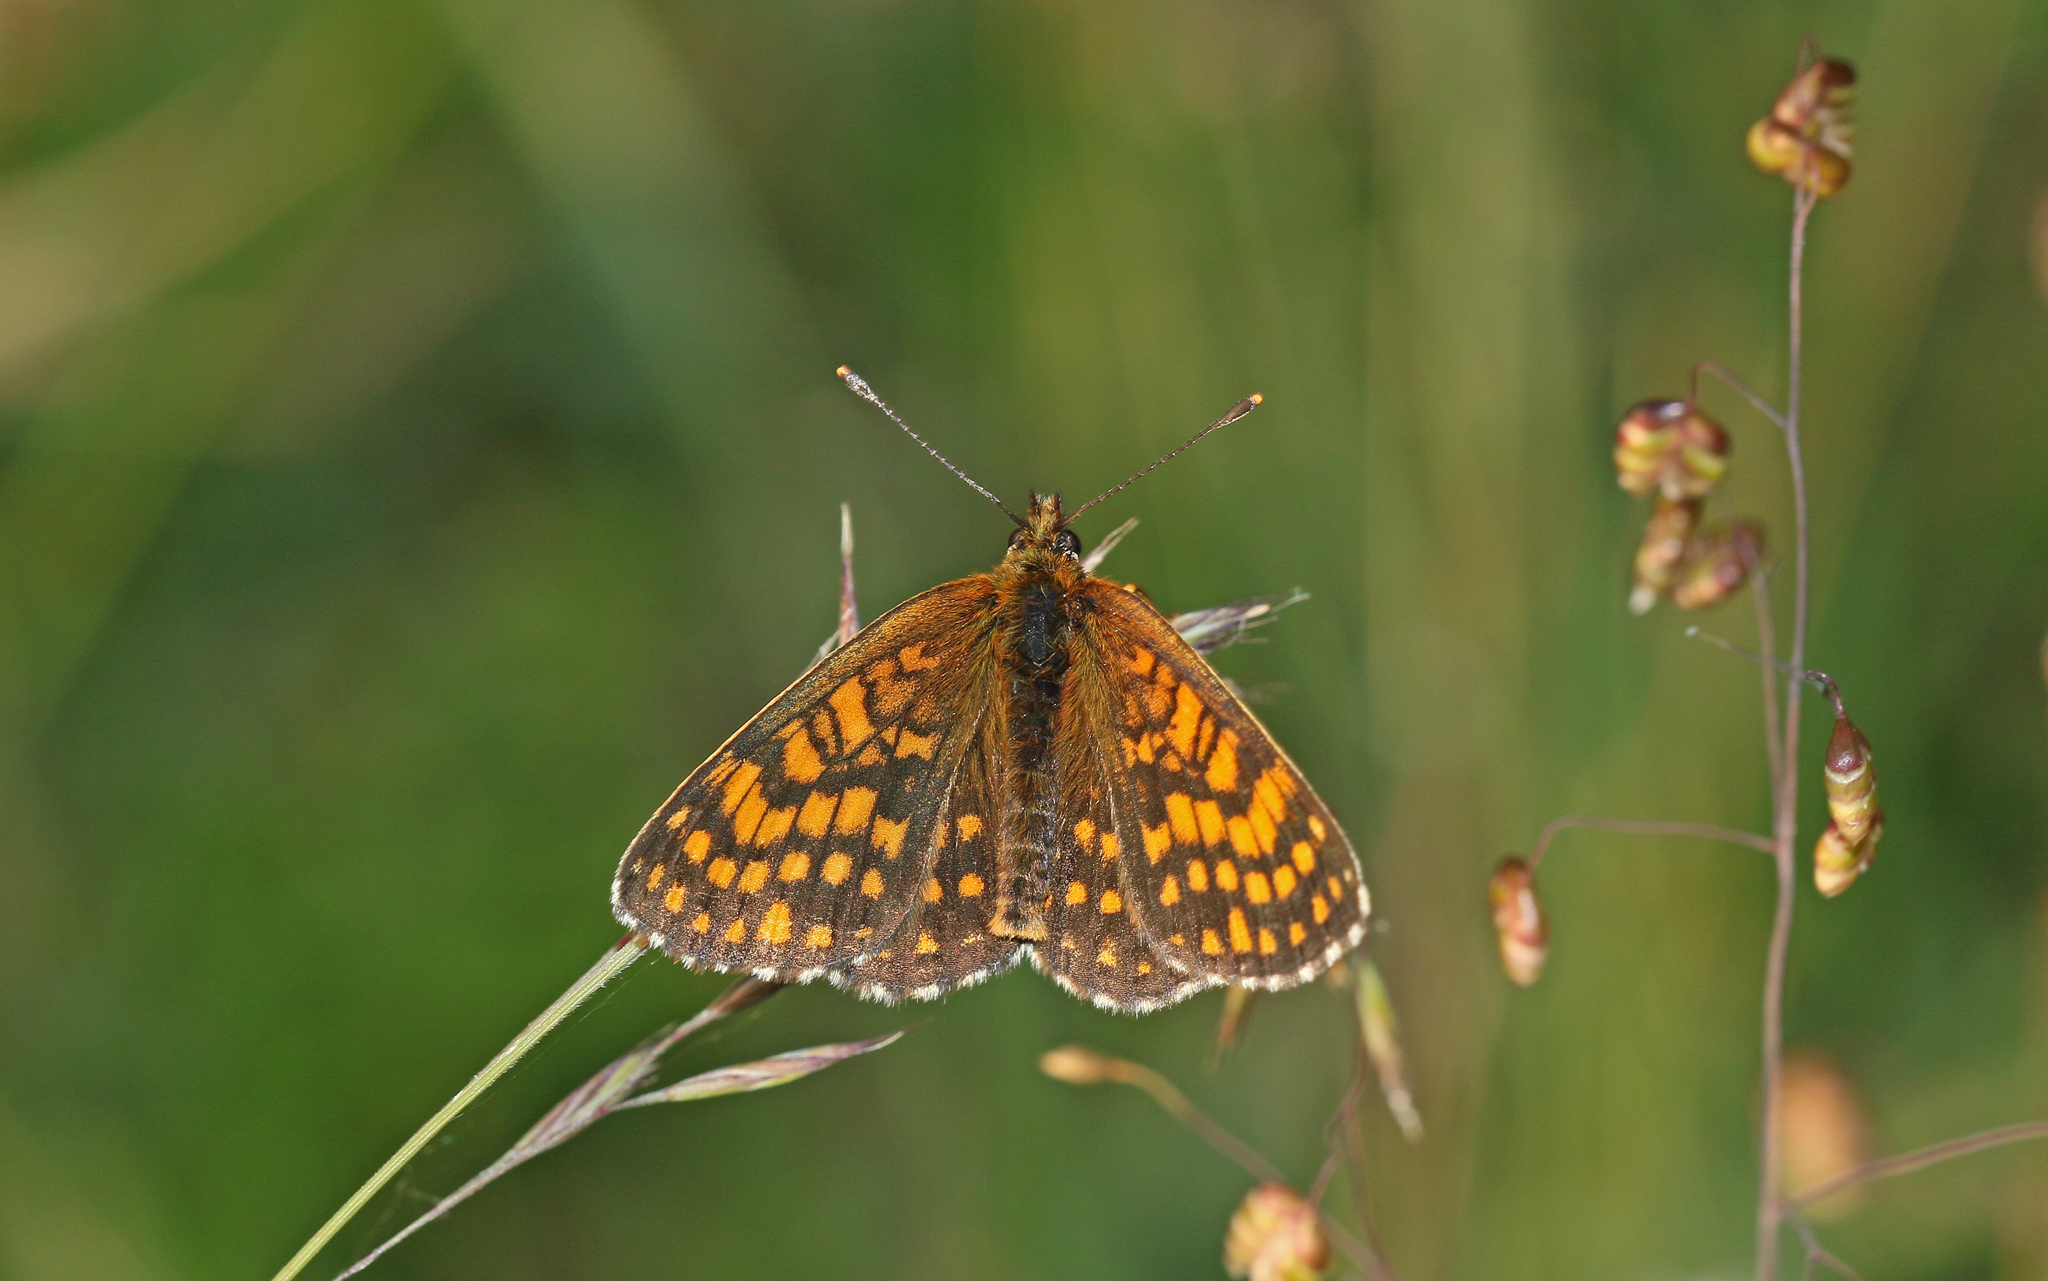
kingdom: Animalia
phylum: Arthropoda
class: Insecta
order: Lepidoptera
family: Nymphalidae
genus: Melitaea
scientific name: Melitaea athalia
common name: Heath fritillary
